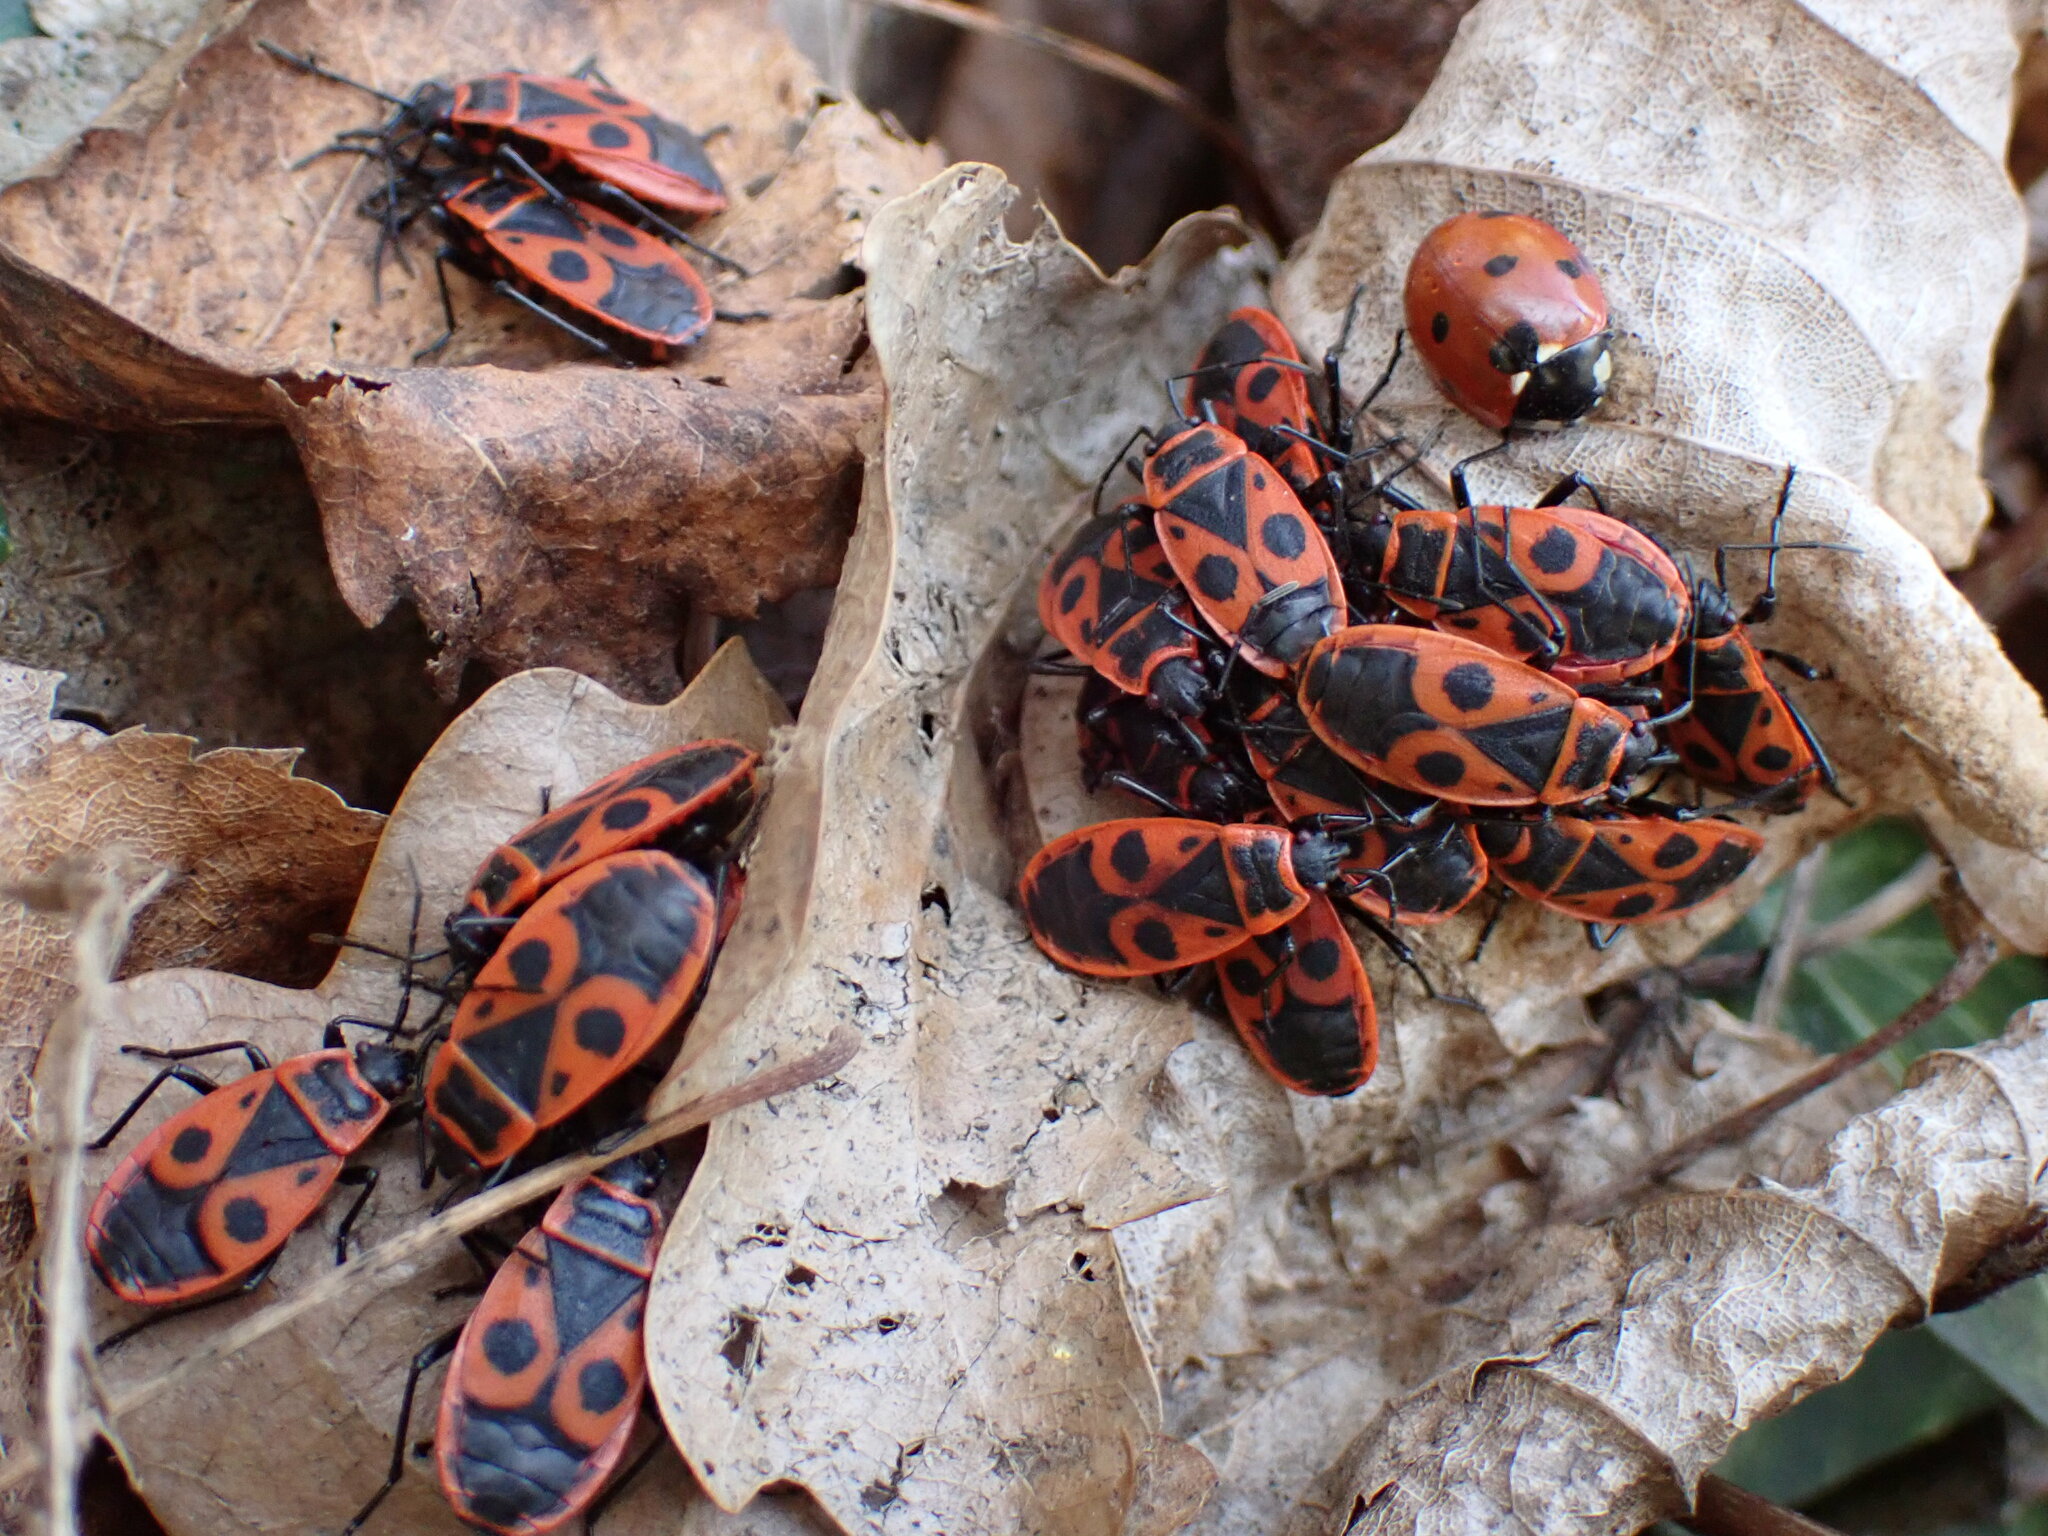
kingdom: Animalia
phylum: Arthropoda
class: Insecta
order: Hemiptera
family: Pyrrhocoridae
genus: Pyrrhocoris
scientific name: Pyrrhocoris apterus
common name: Firebug
